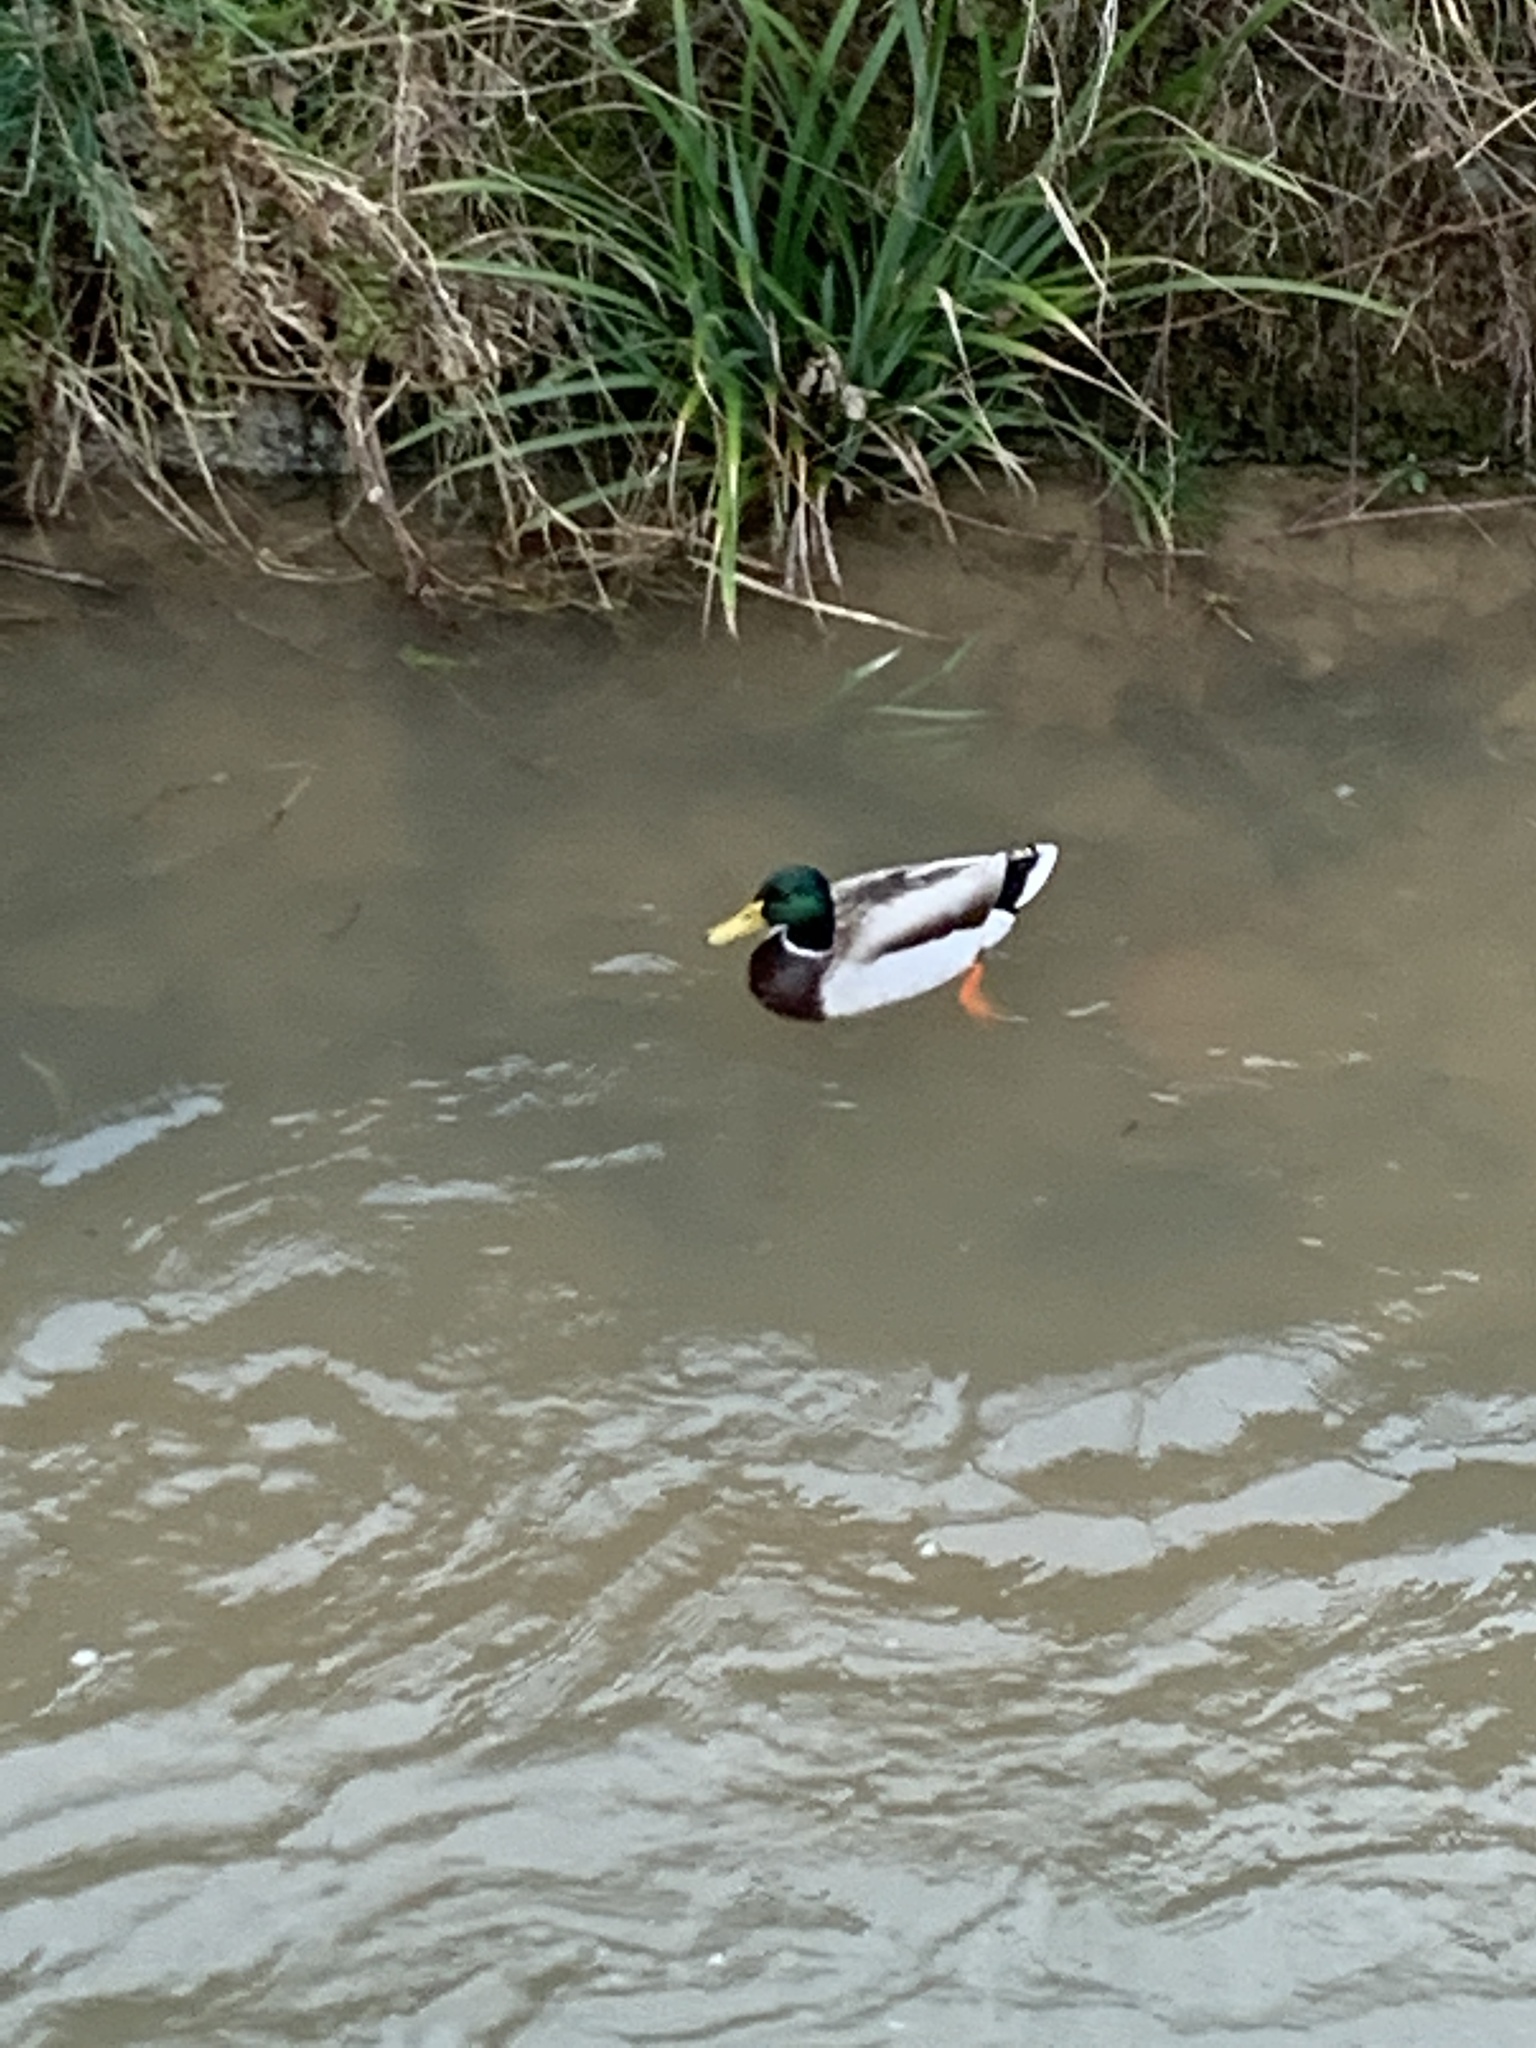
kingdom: Animalia
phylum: Chordata
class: Aves
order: Anseriformes
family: Anatidae
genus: Anas
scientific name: Anas platyrhynchos
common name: Mallard
